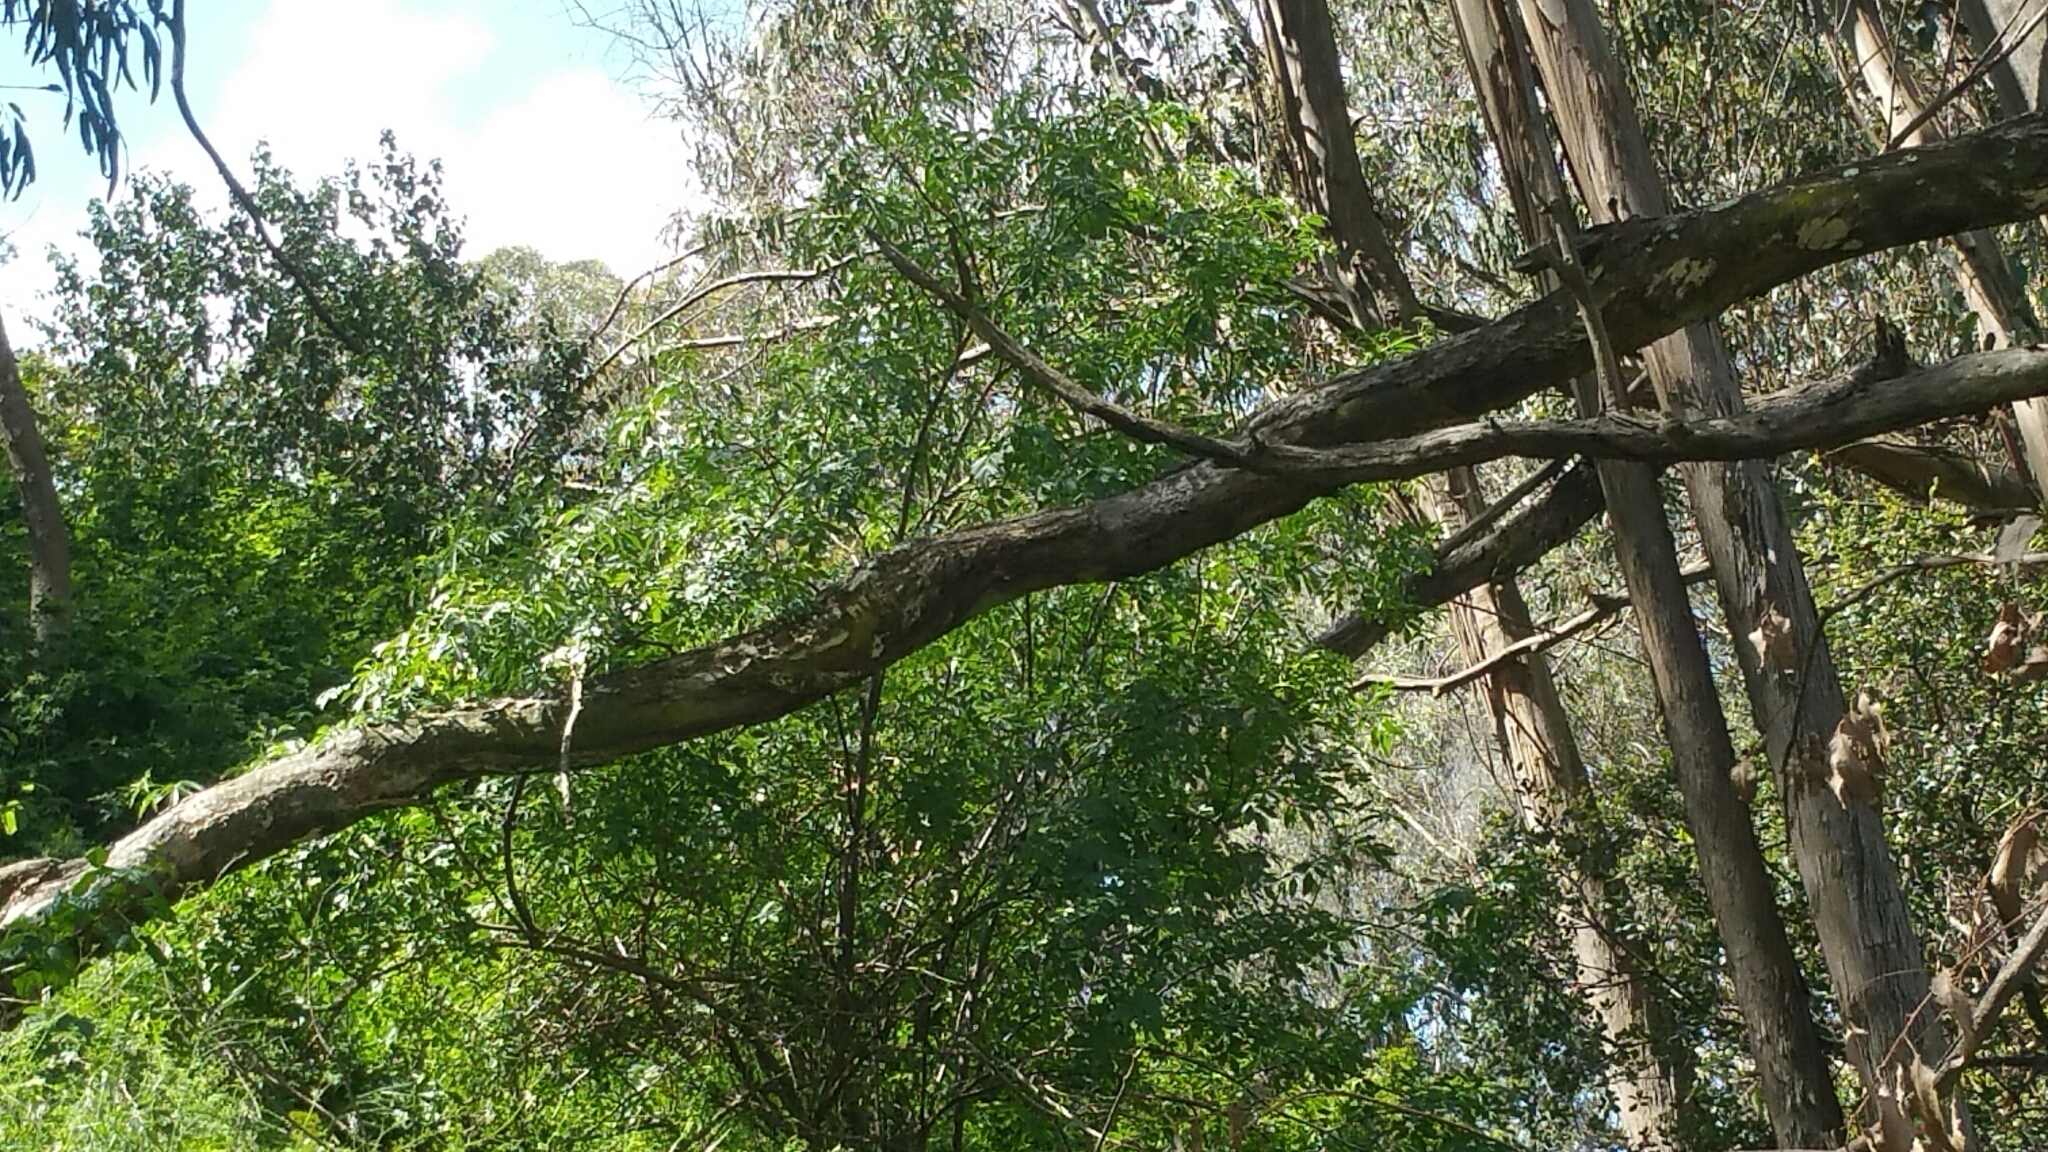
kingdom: Plantae
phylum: Tracheophyta
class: Magnoliopsida
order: Dipsacales
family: Viburnaceae
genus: Sambucus
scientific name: Sambucus cerulea
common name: Blue elder
